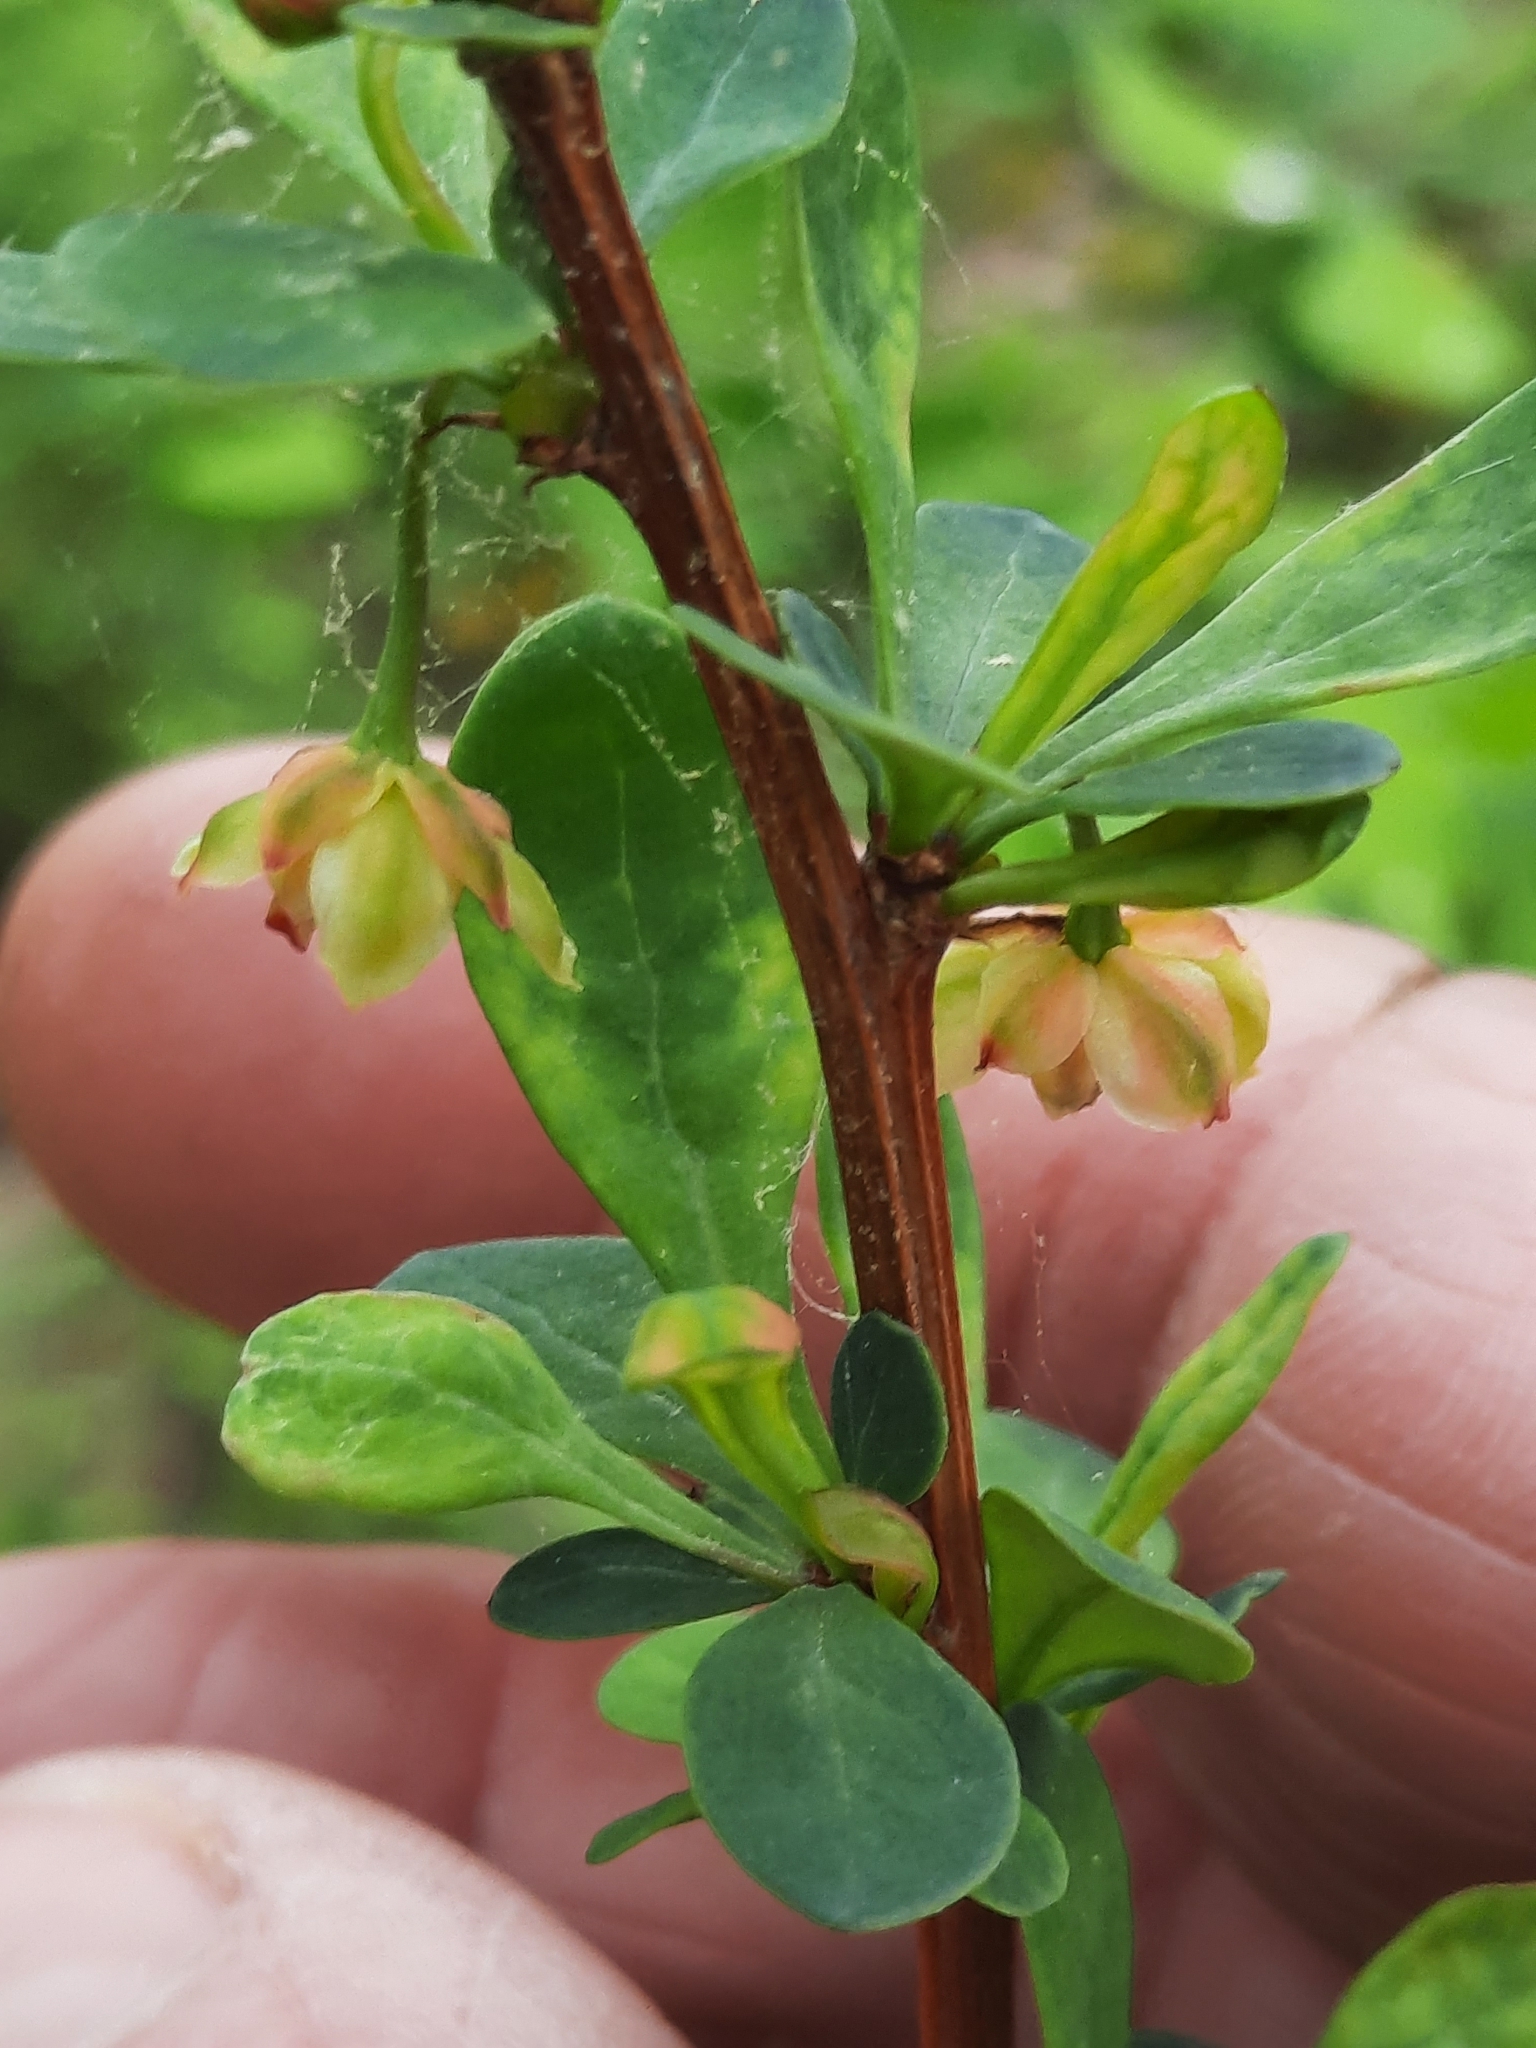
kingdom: Plantae
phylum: Tracheophyta
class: Magnoliopsida
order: Ranunculales
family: Berberidaceae
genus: Berberis
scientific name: Berberis thunbergii
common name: Japanese barberry
